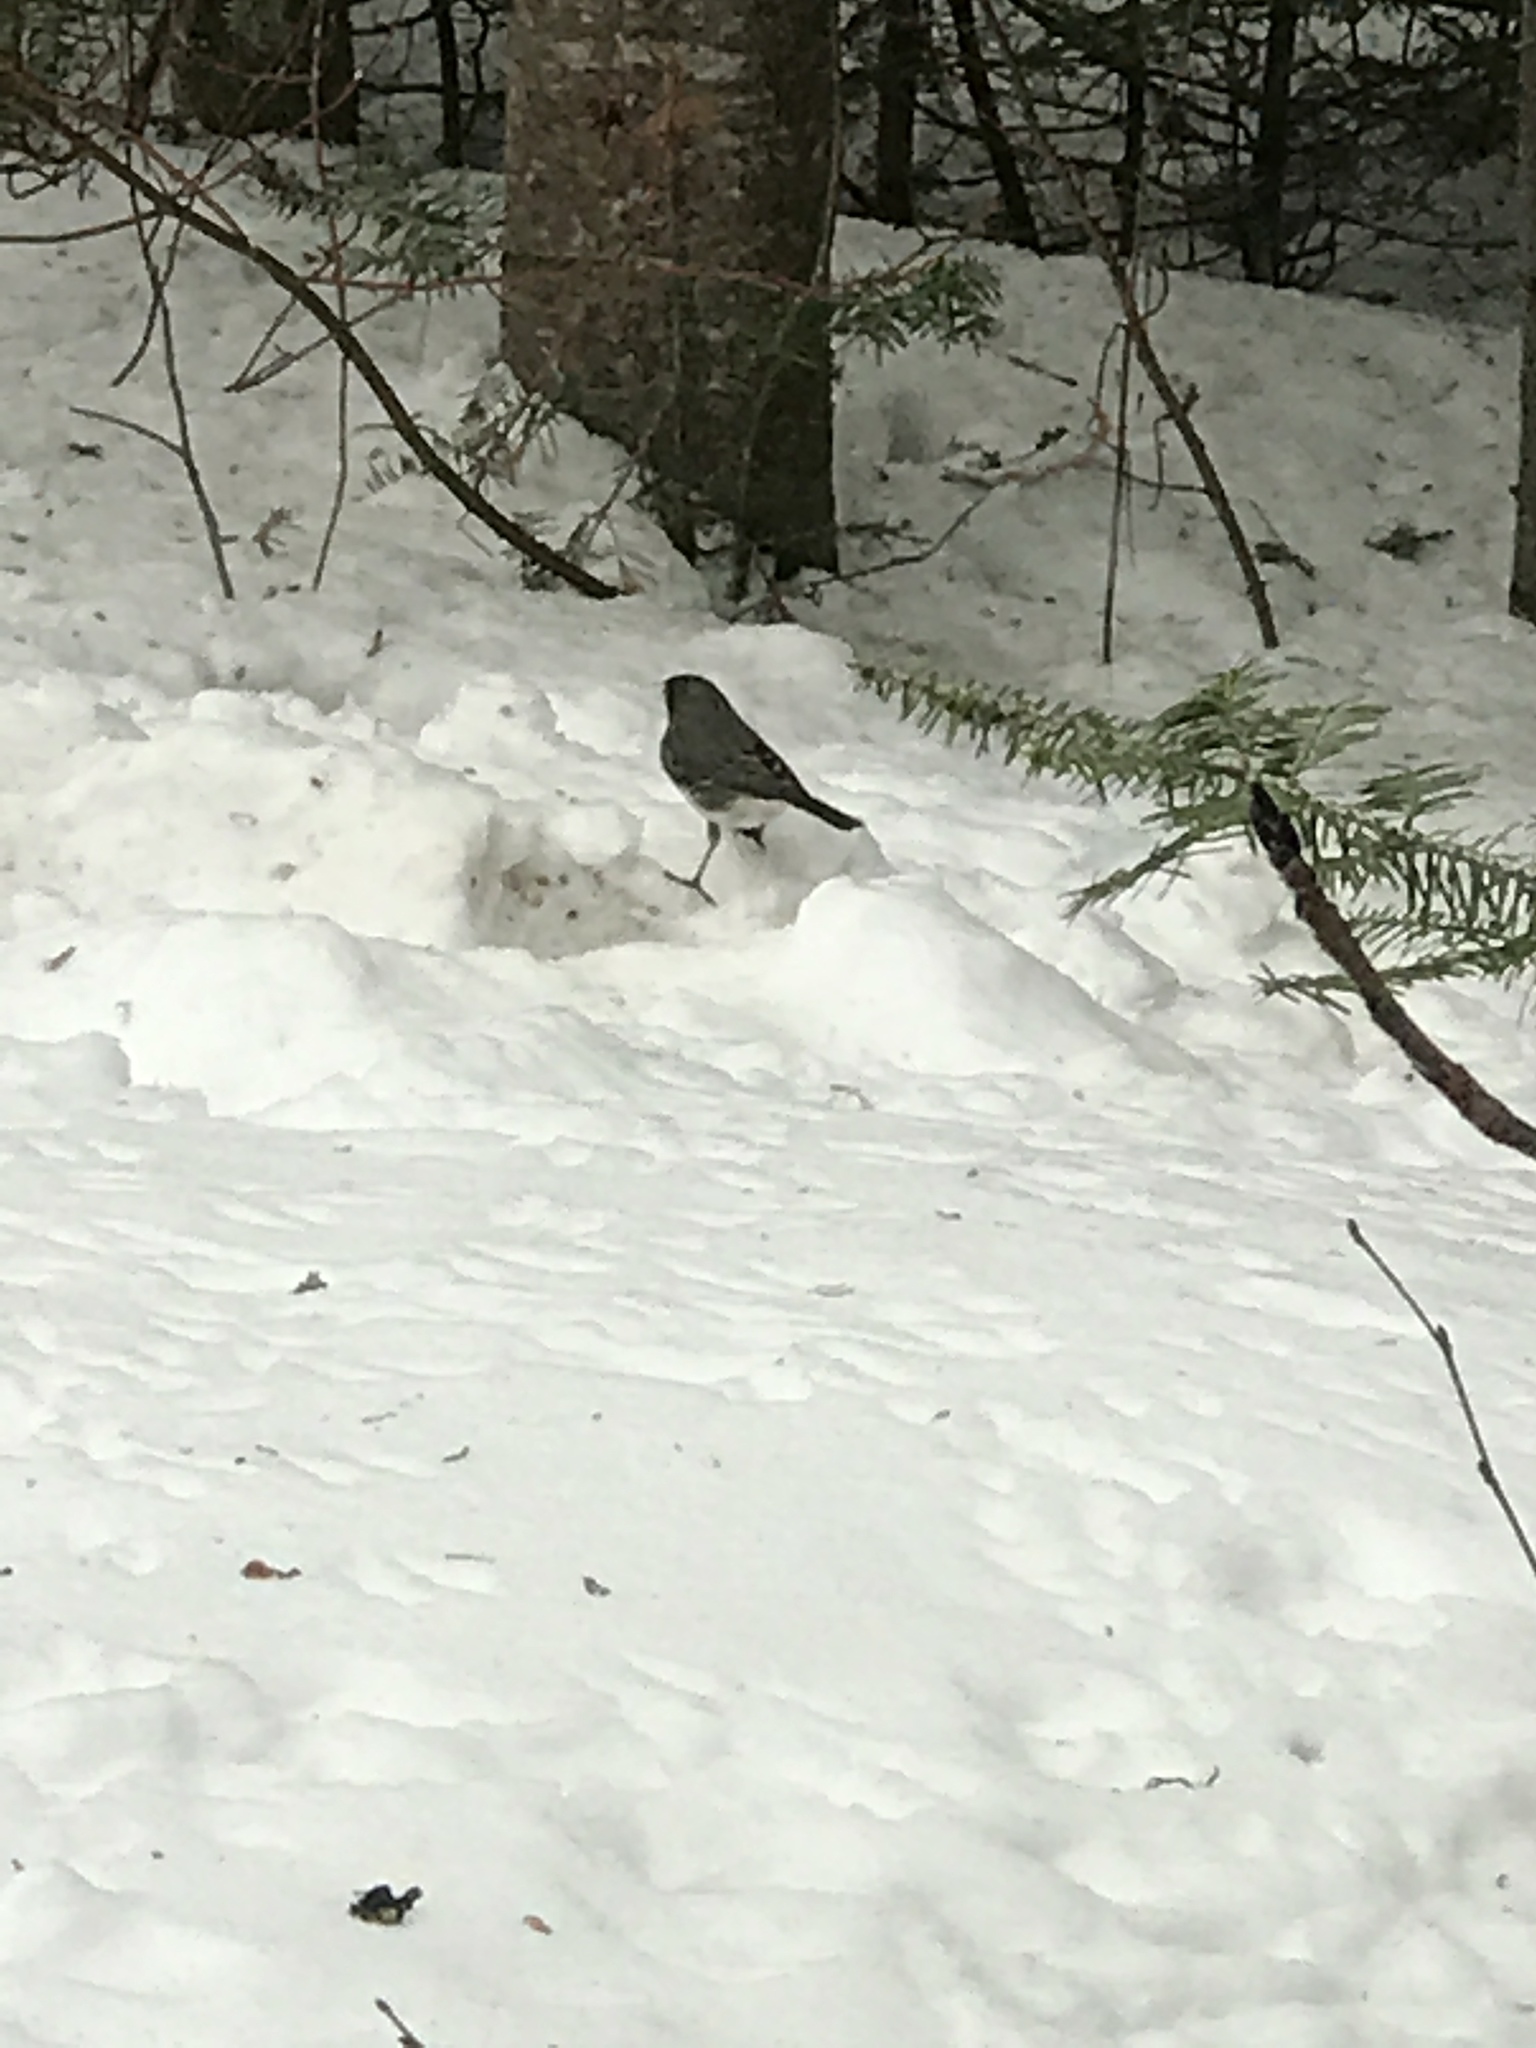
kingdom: Animalia
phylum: Chordata
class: Aves
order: Passeriformes
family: Passerellidae
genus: Junco
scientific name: Junco hyemalis
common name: Dark-eyed junco
